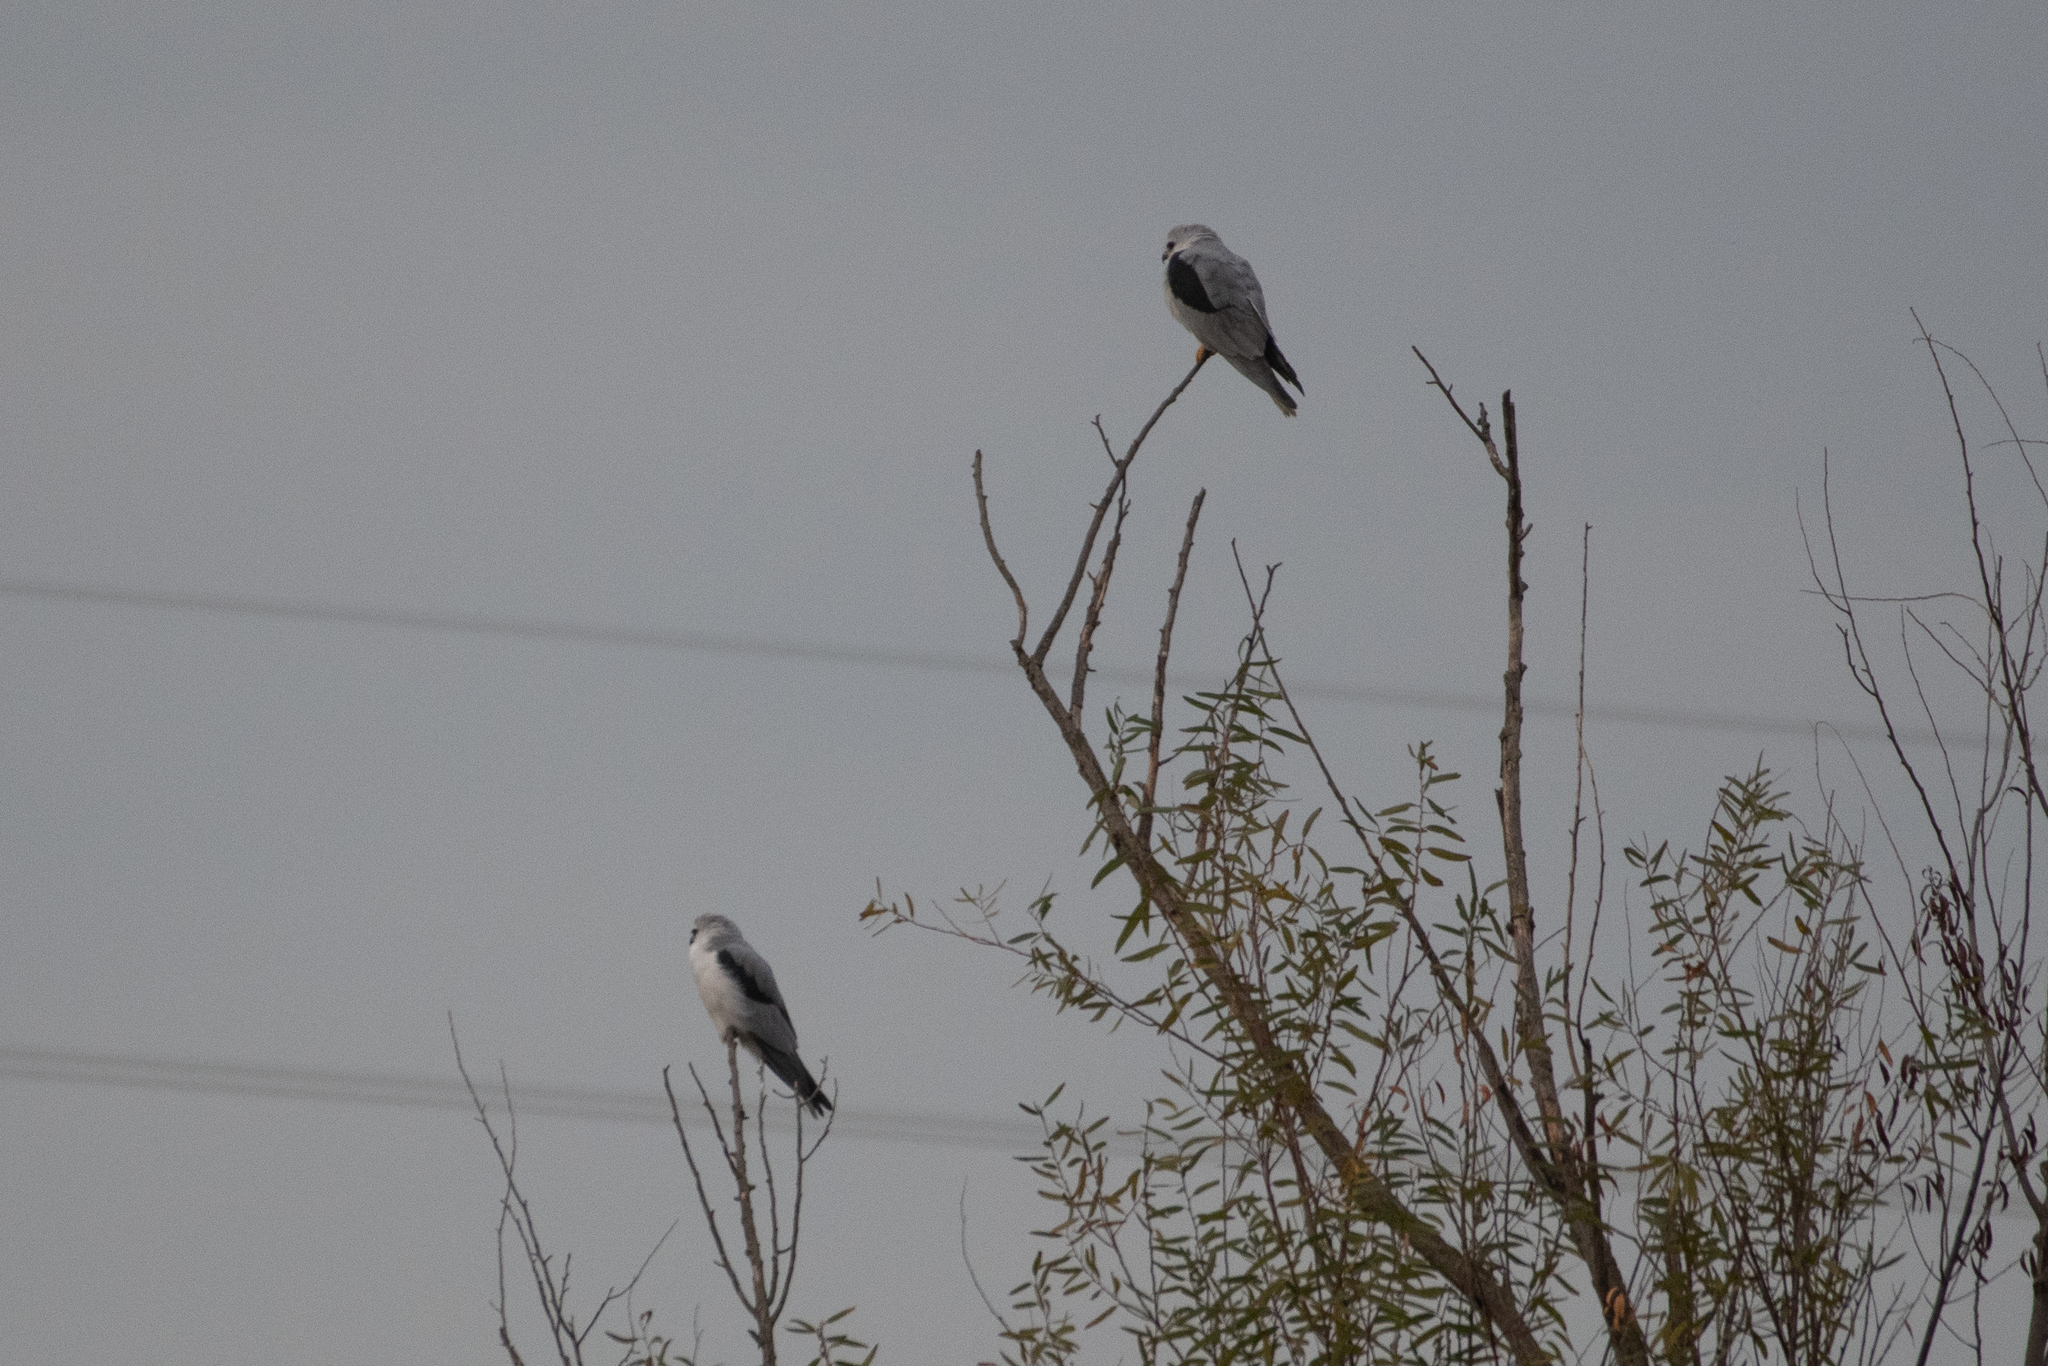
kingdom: Animalia
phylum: Chordata
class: Aves
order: Accipitriformes
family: Accipitridae
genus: Elanus
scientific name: Elanus leucurus
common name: White-tailed kite
